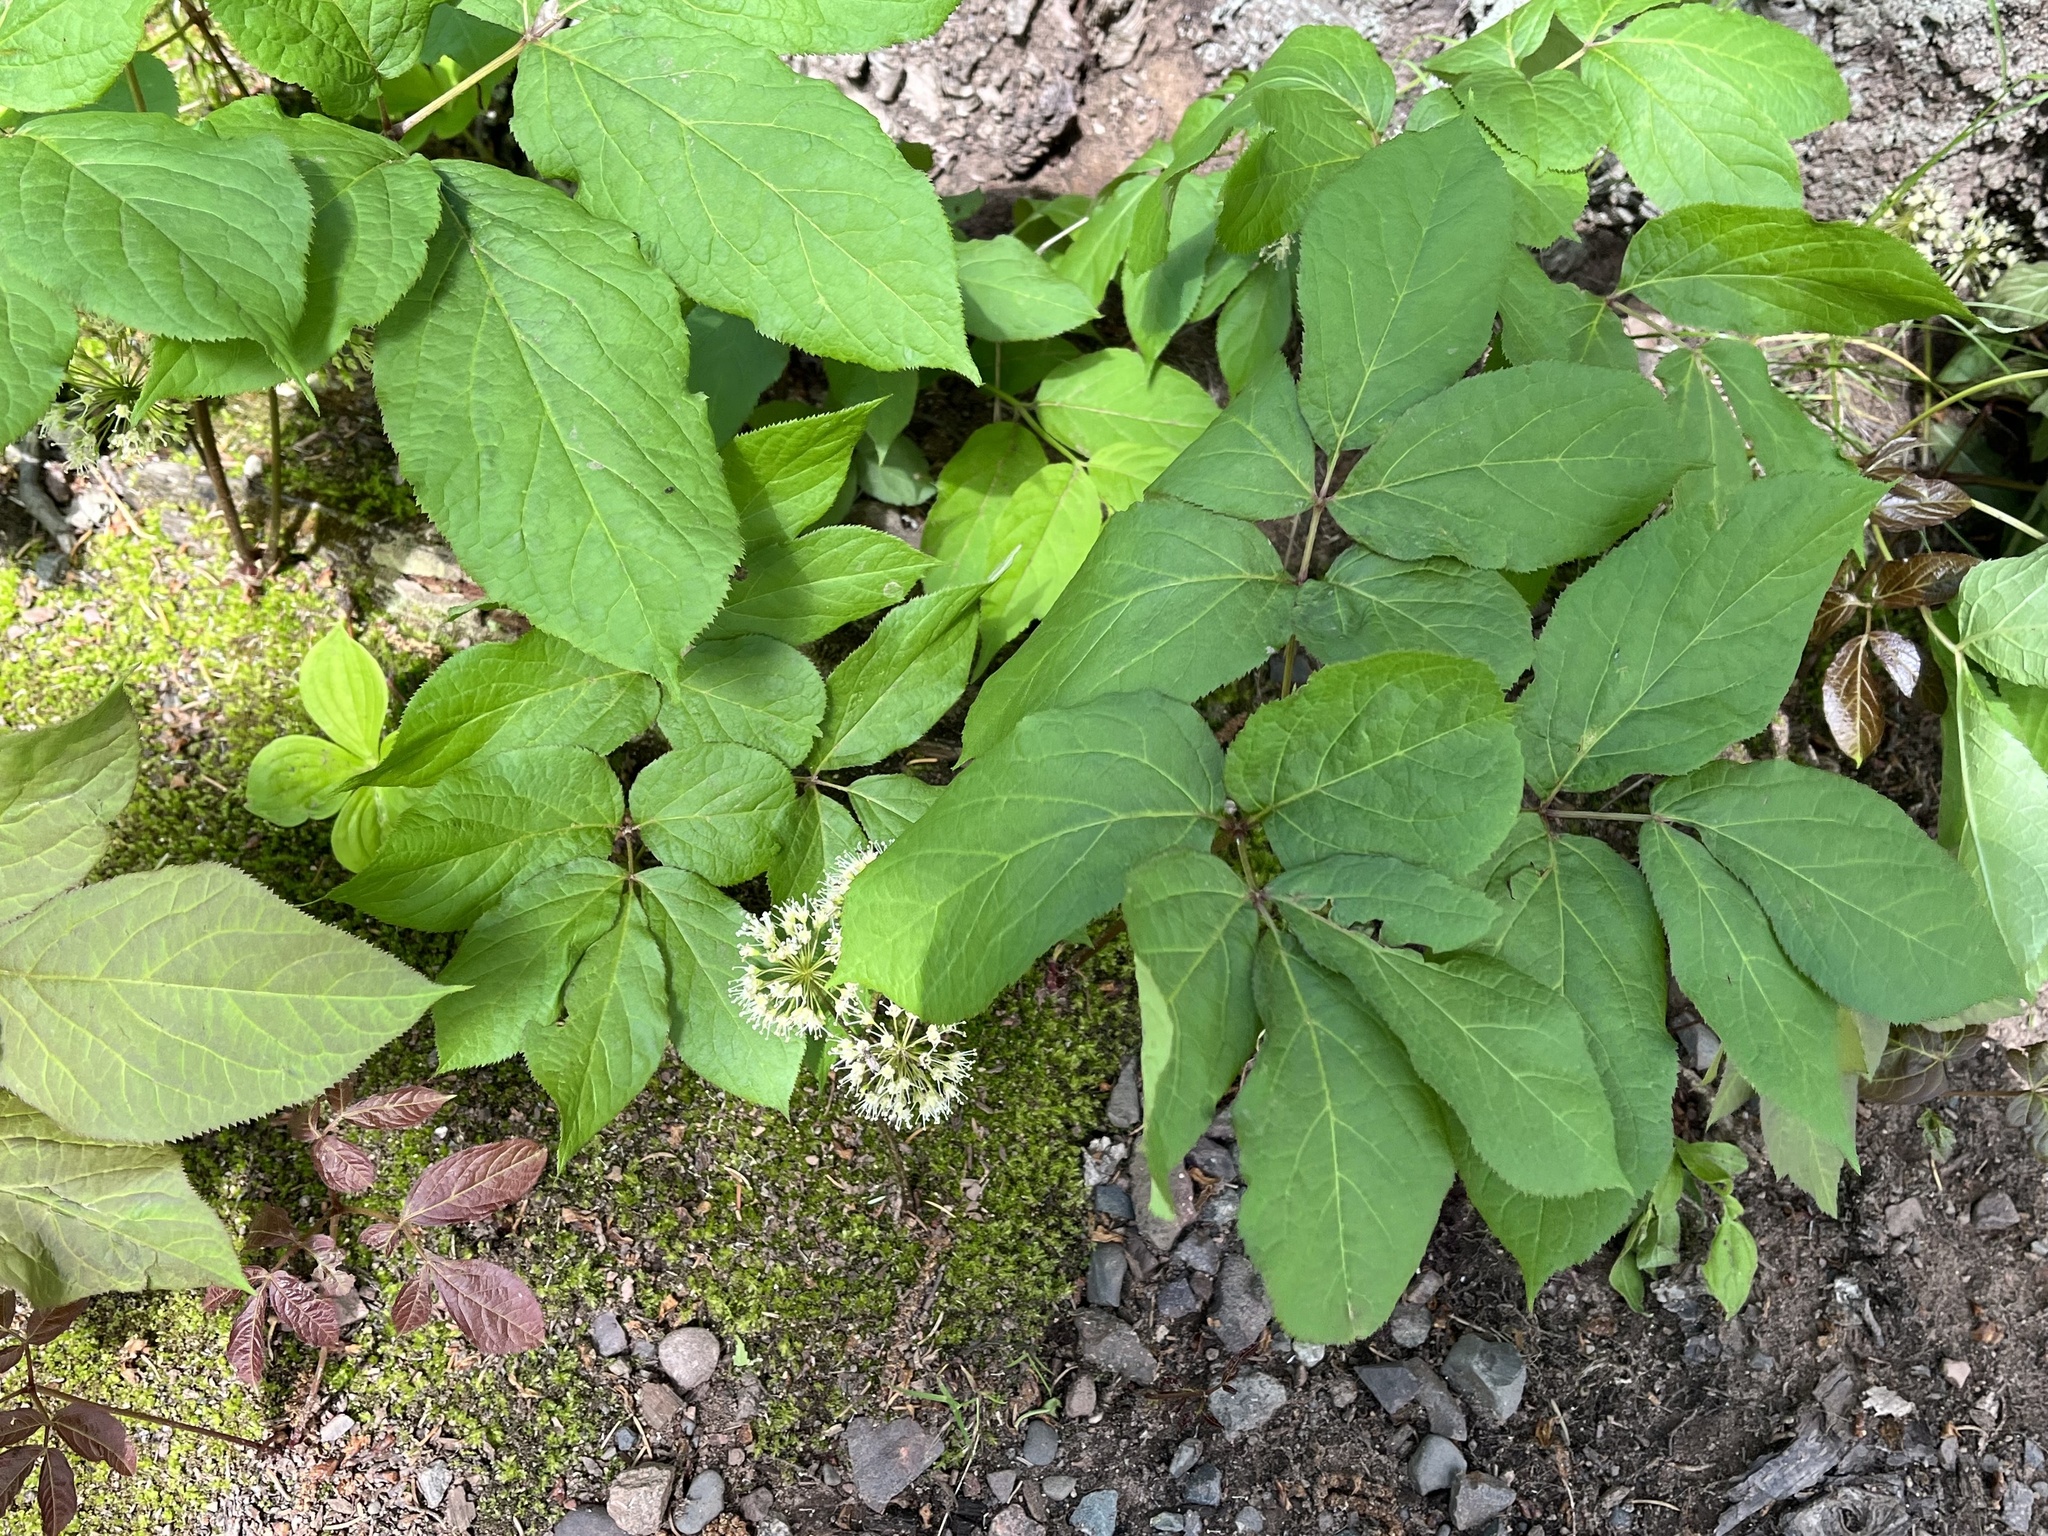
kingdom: Plantae
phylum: Tracheophyta
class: Magnoliopsida
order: Apiales
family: Araliaceae
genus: Aralia
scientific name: Aralia nudicaulis
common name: Wild sarsaparilla
